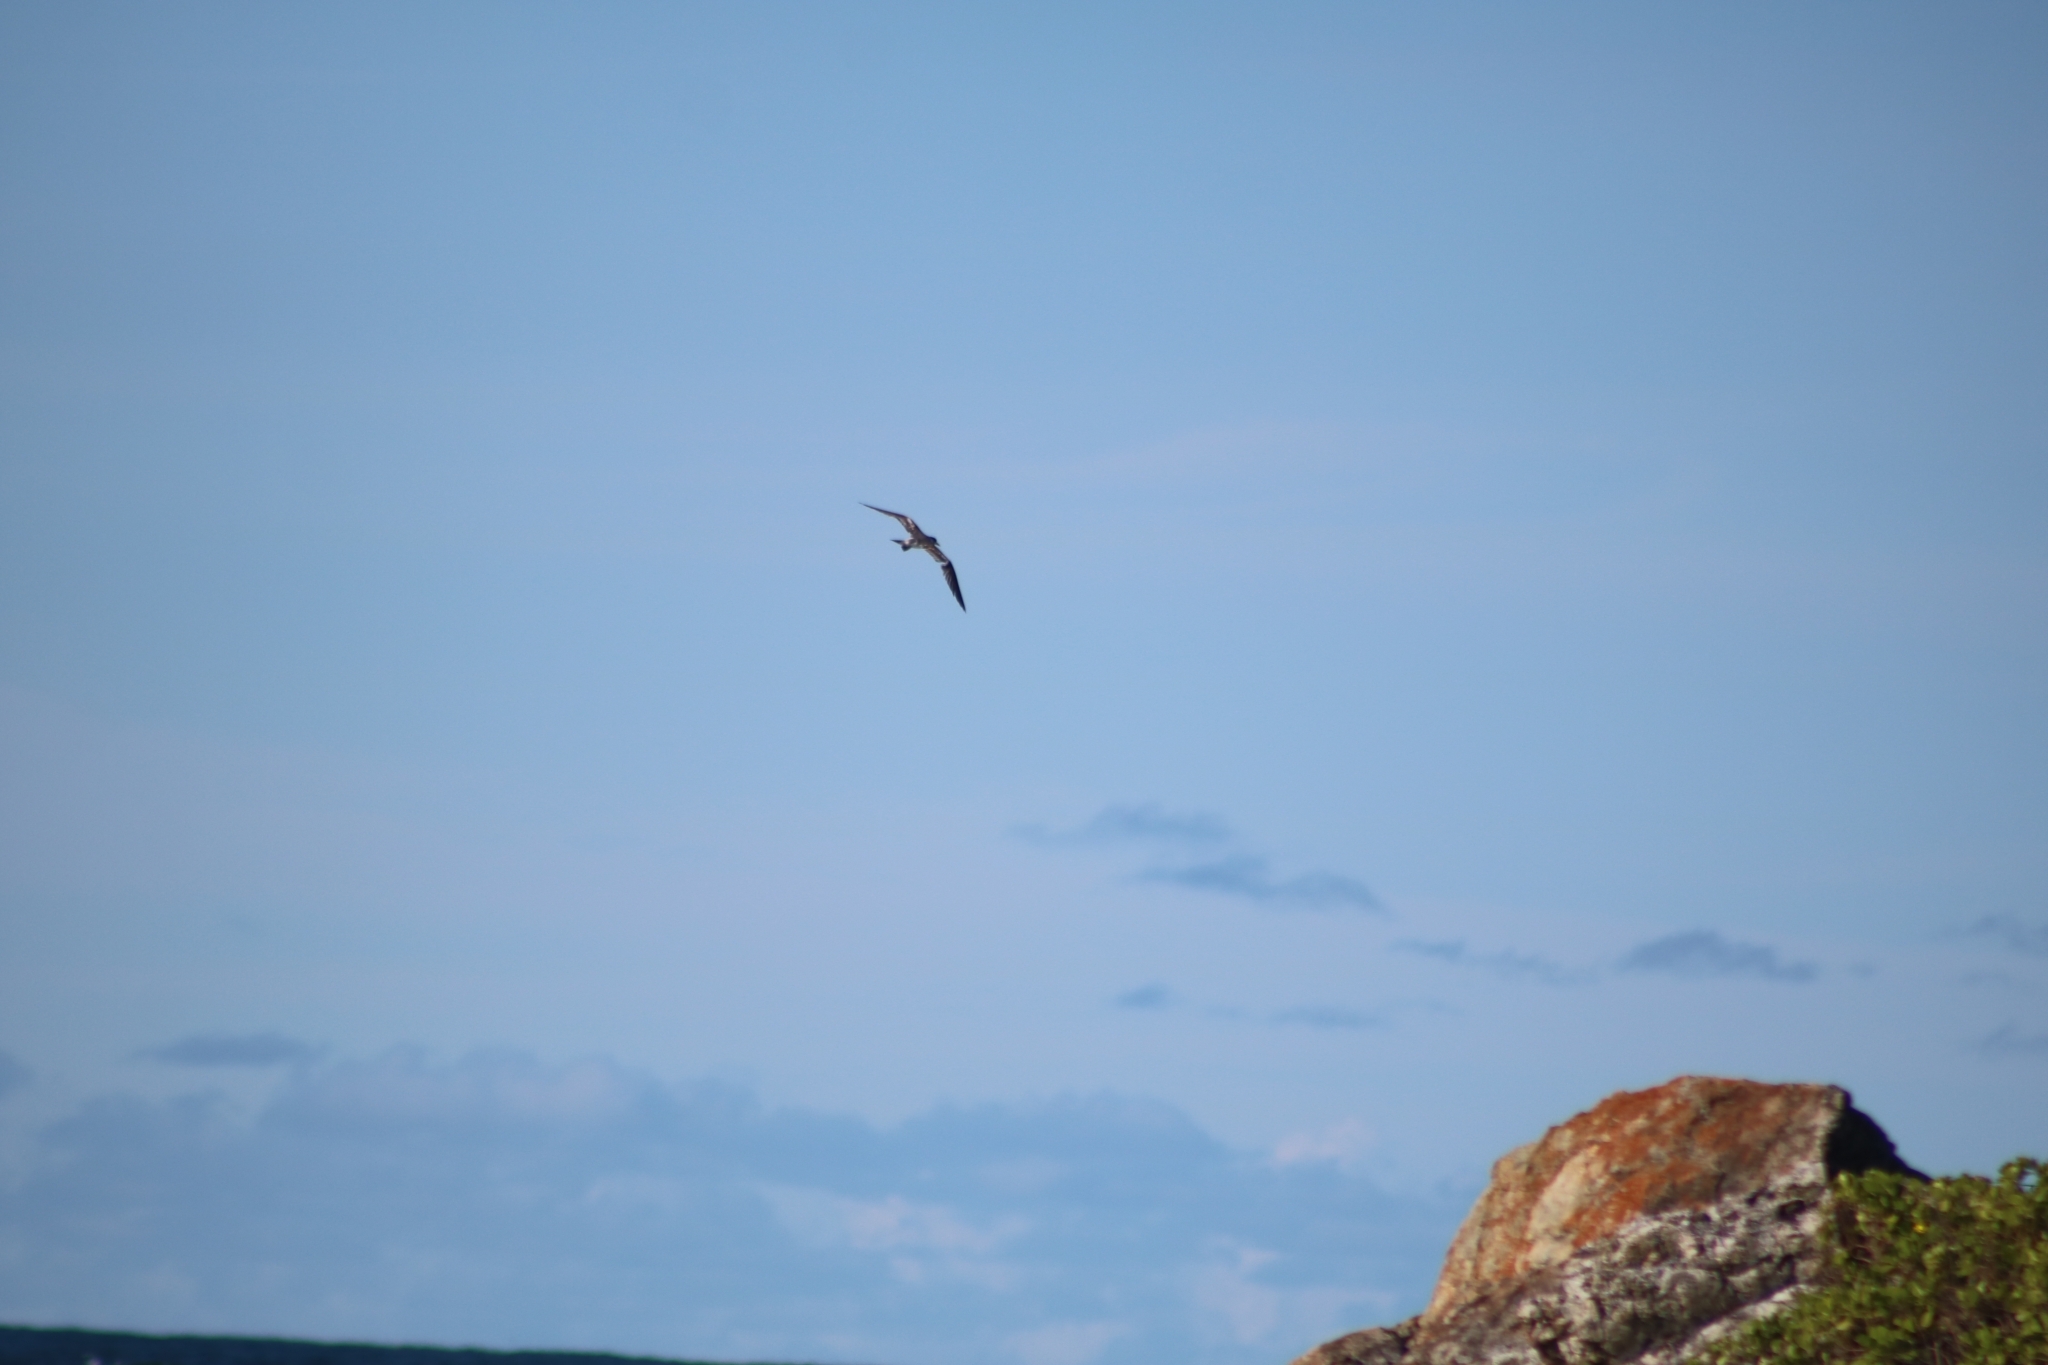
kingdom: Animalia
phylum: Chordata
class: Aves
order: Charadriiformes
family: Laridae
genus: Thalasseus
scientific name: Thalasseus bergii
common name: Greater crested tern
